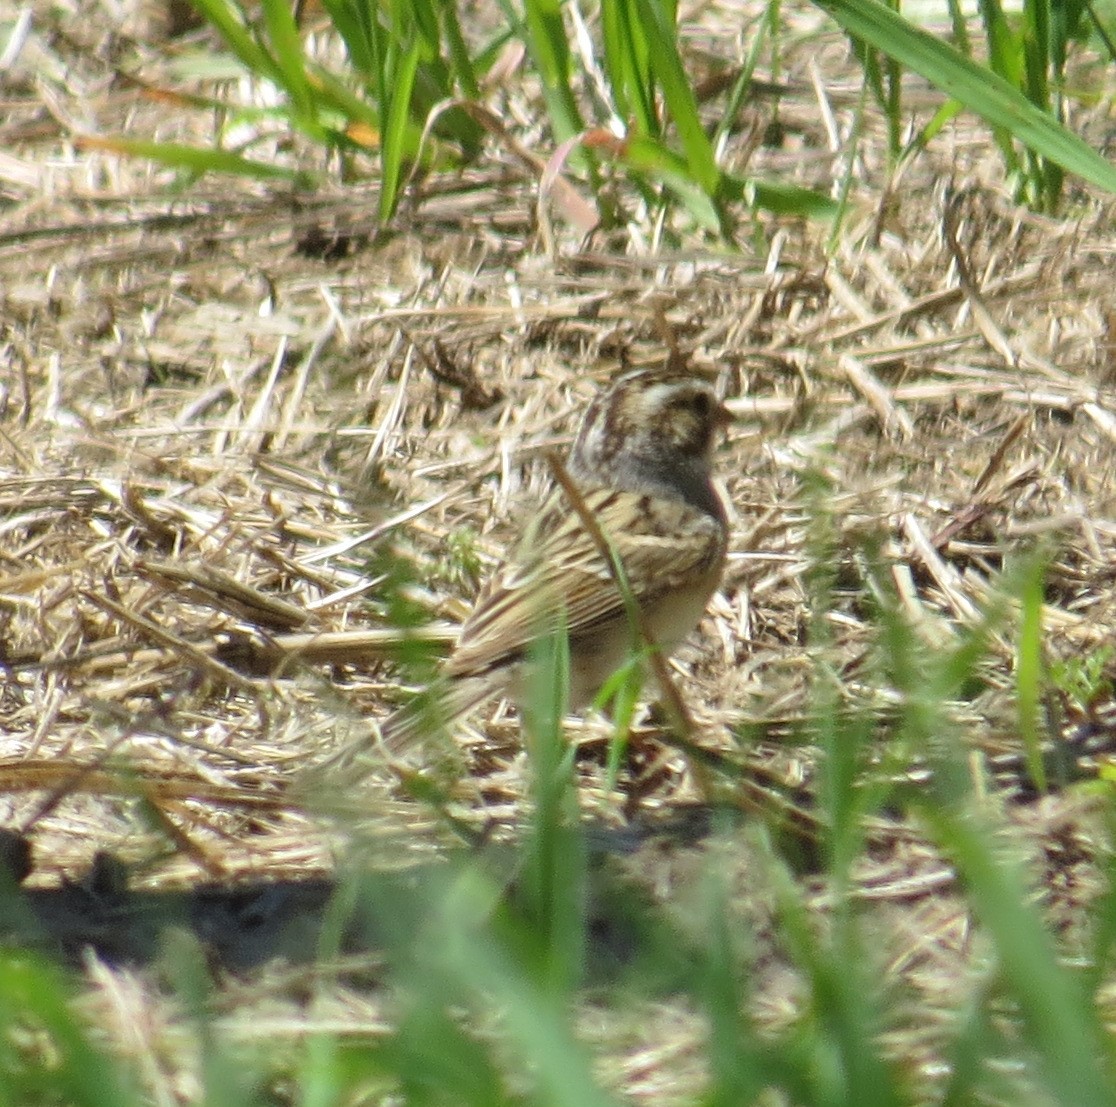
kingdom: Animalia
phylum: Chordata
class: Aves
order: Passeriformes
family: Passerellidae
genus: Spizella
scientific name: Spizella pallida
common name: Clay-colored sparrow
